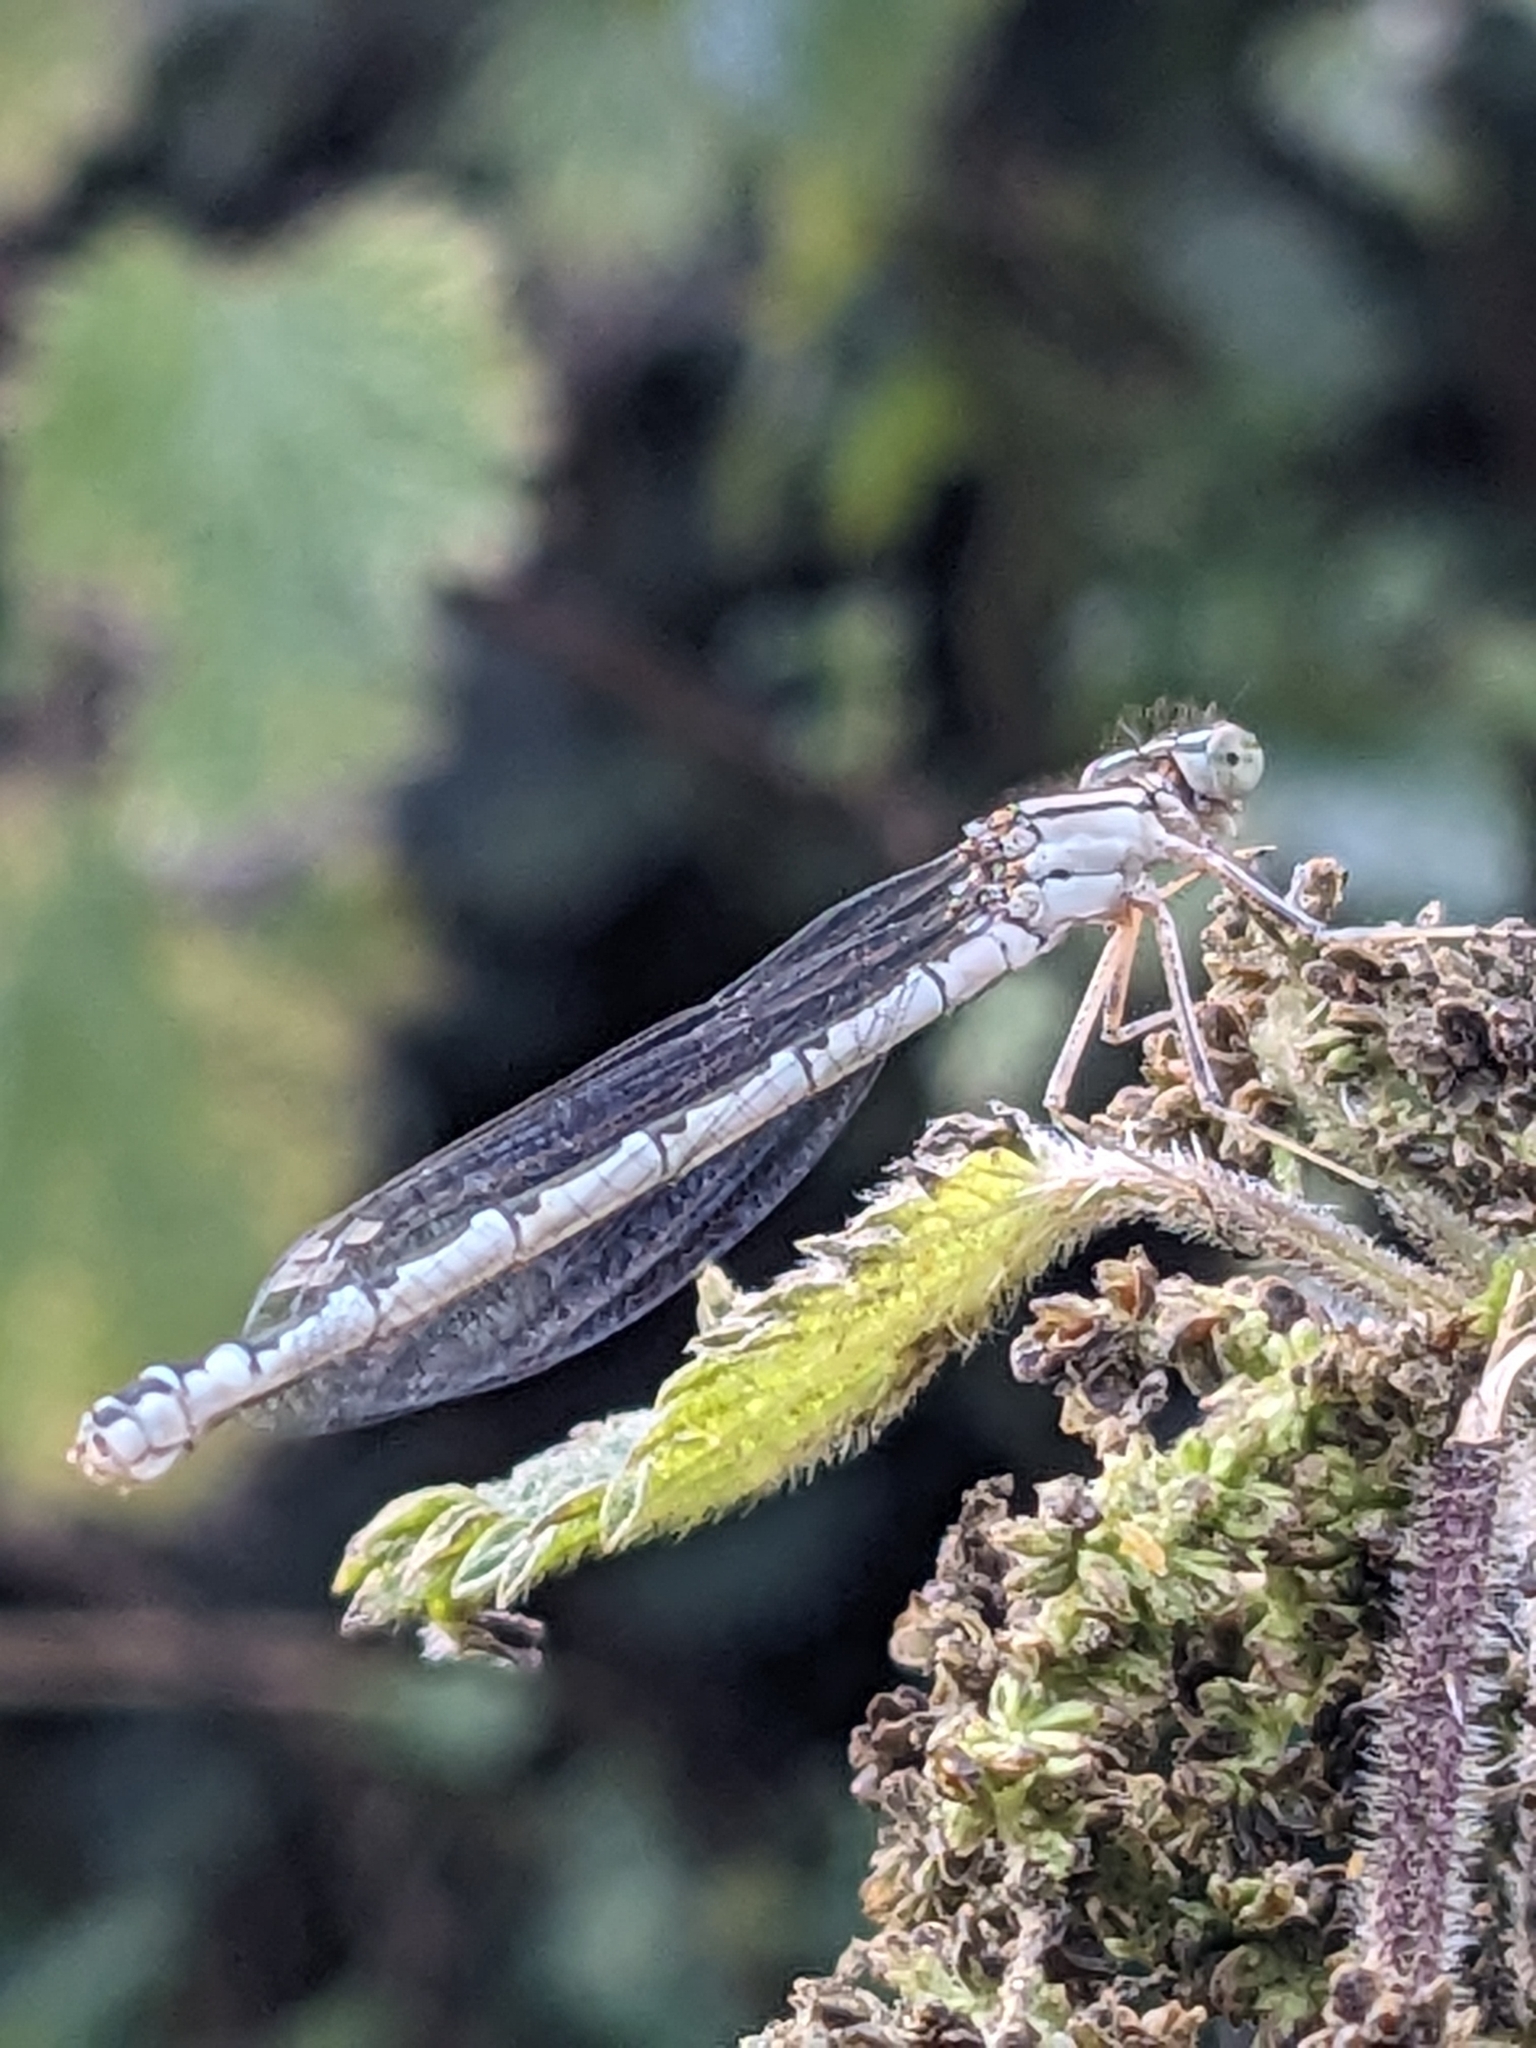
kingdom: Animalia
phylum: Arthropoda
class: Insecta
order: Odonata
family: Coenagrionidae
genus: Enallagma
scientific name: Enallagma cyathigerum
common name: Common blue damselfly
